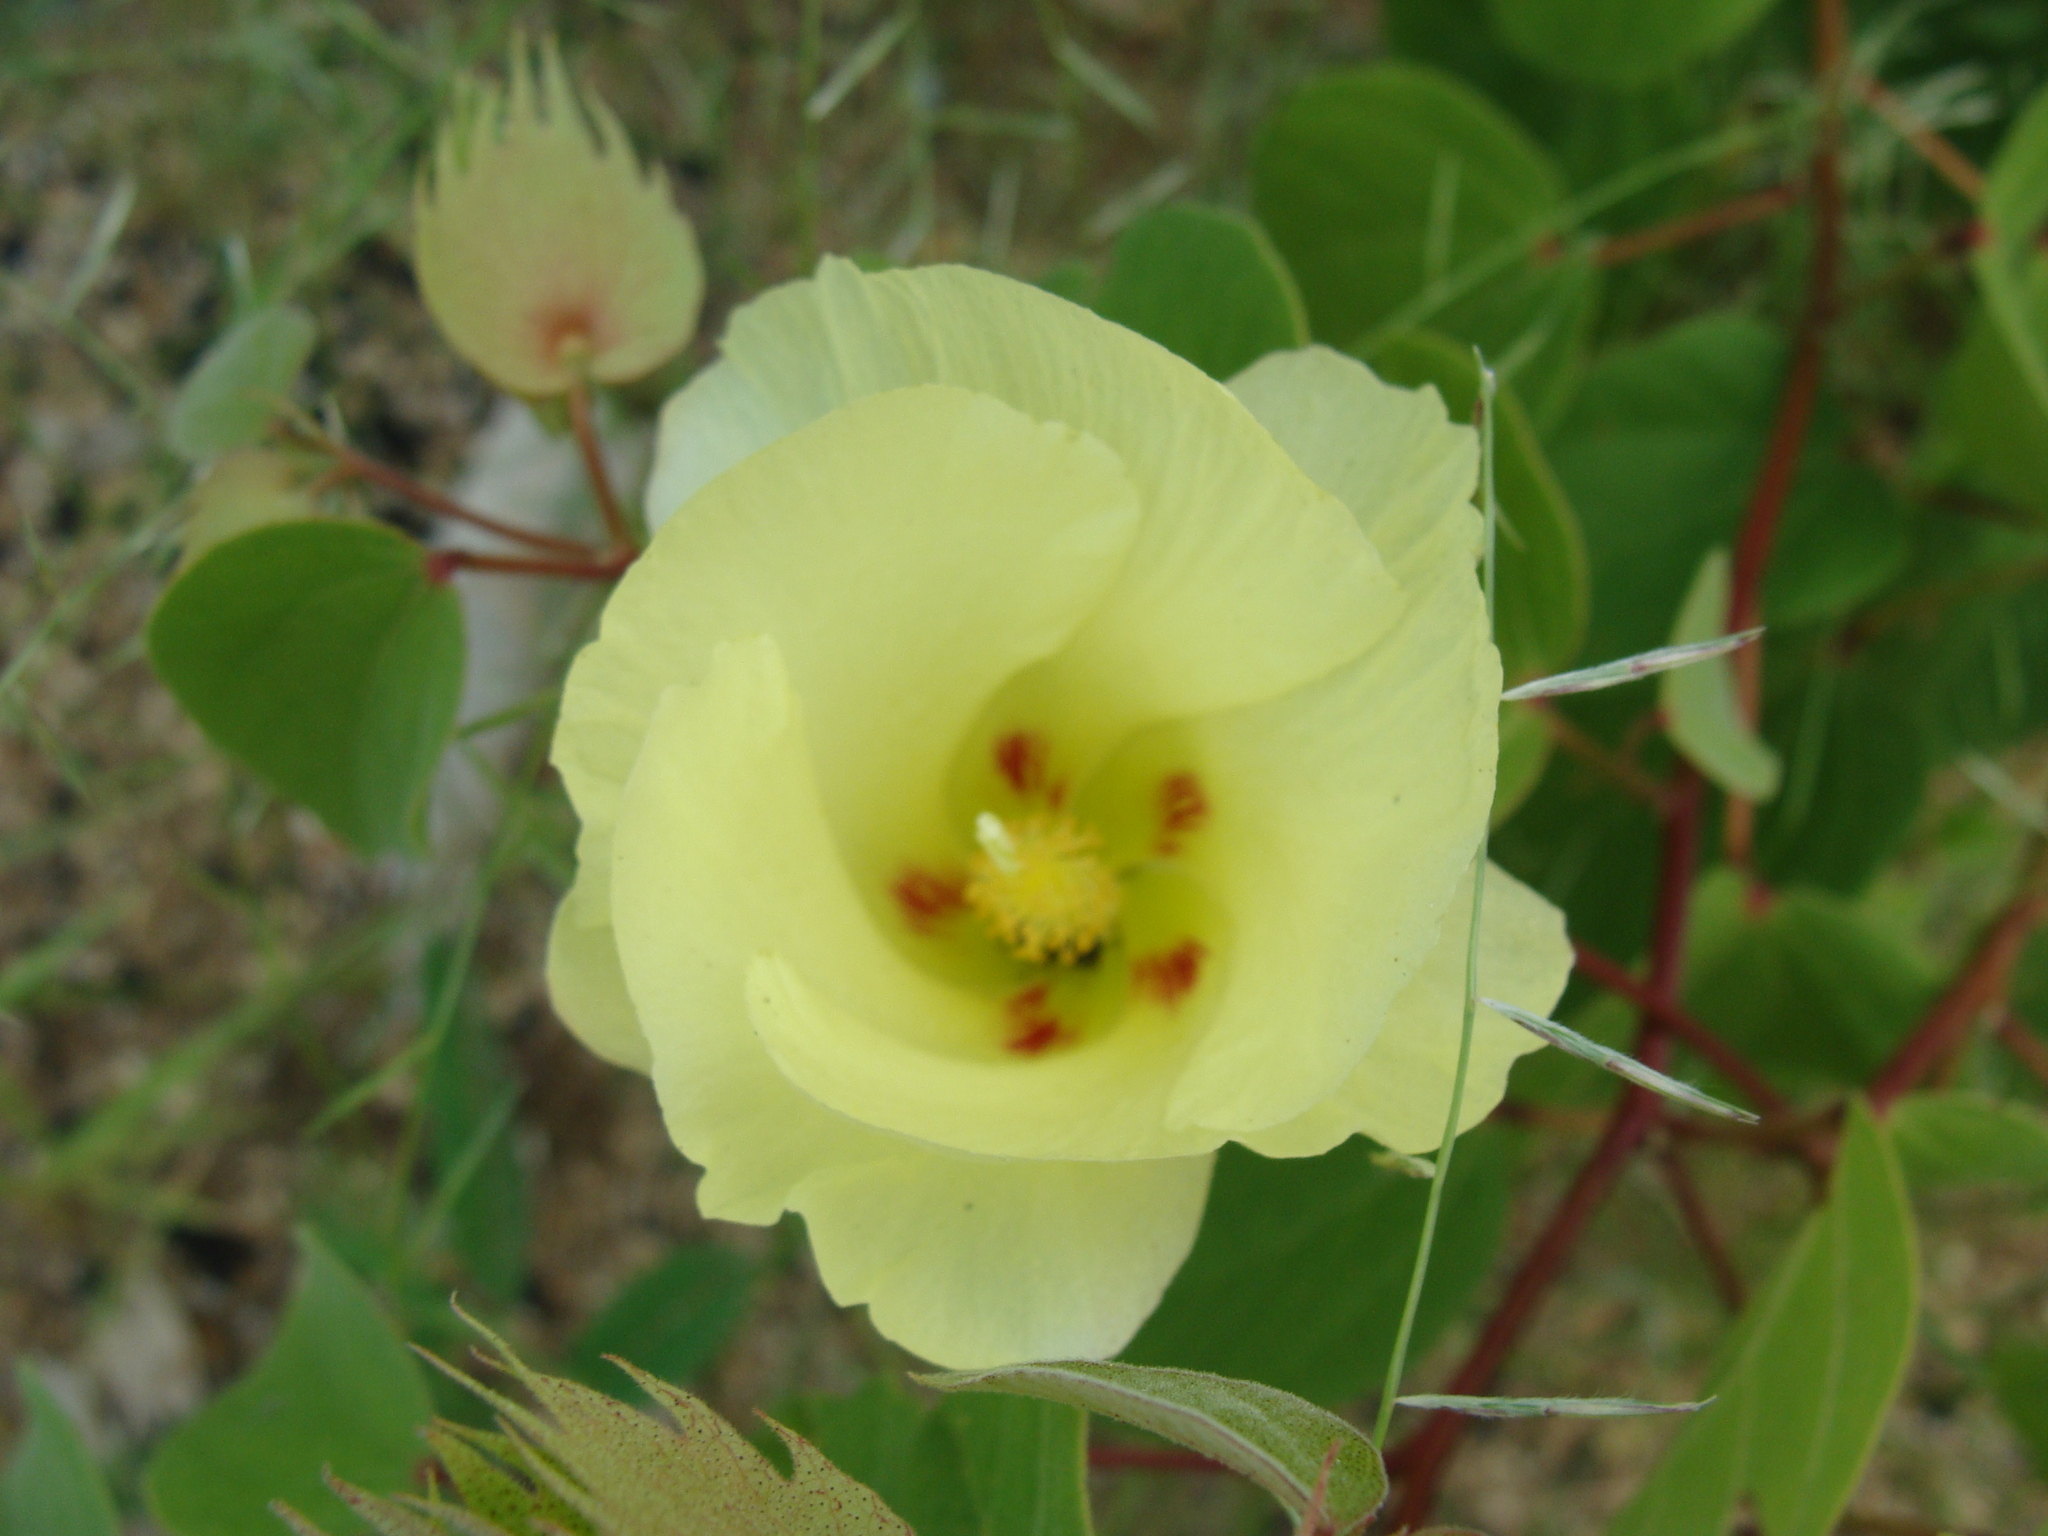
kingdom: Plantae
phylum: Tracheophyta
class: Magnoliopsida
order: Malvales
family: Malvaceae
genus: Gossypium
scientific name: Gossypium klotzschianum
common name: Galapagos cotton
